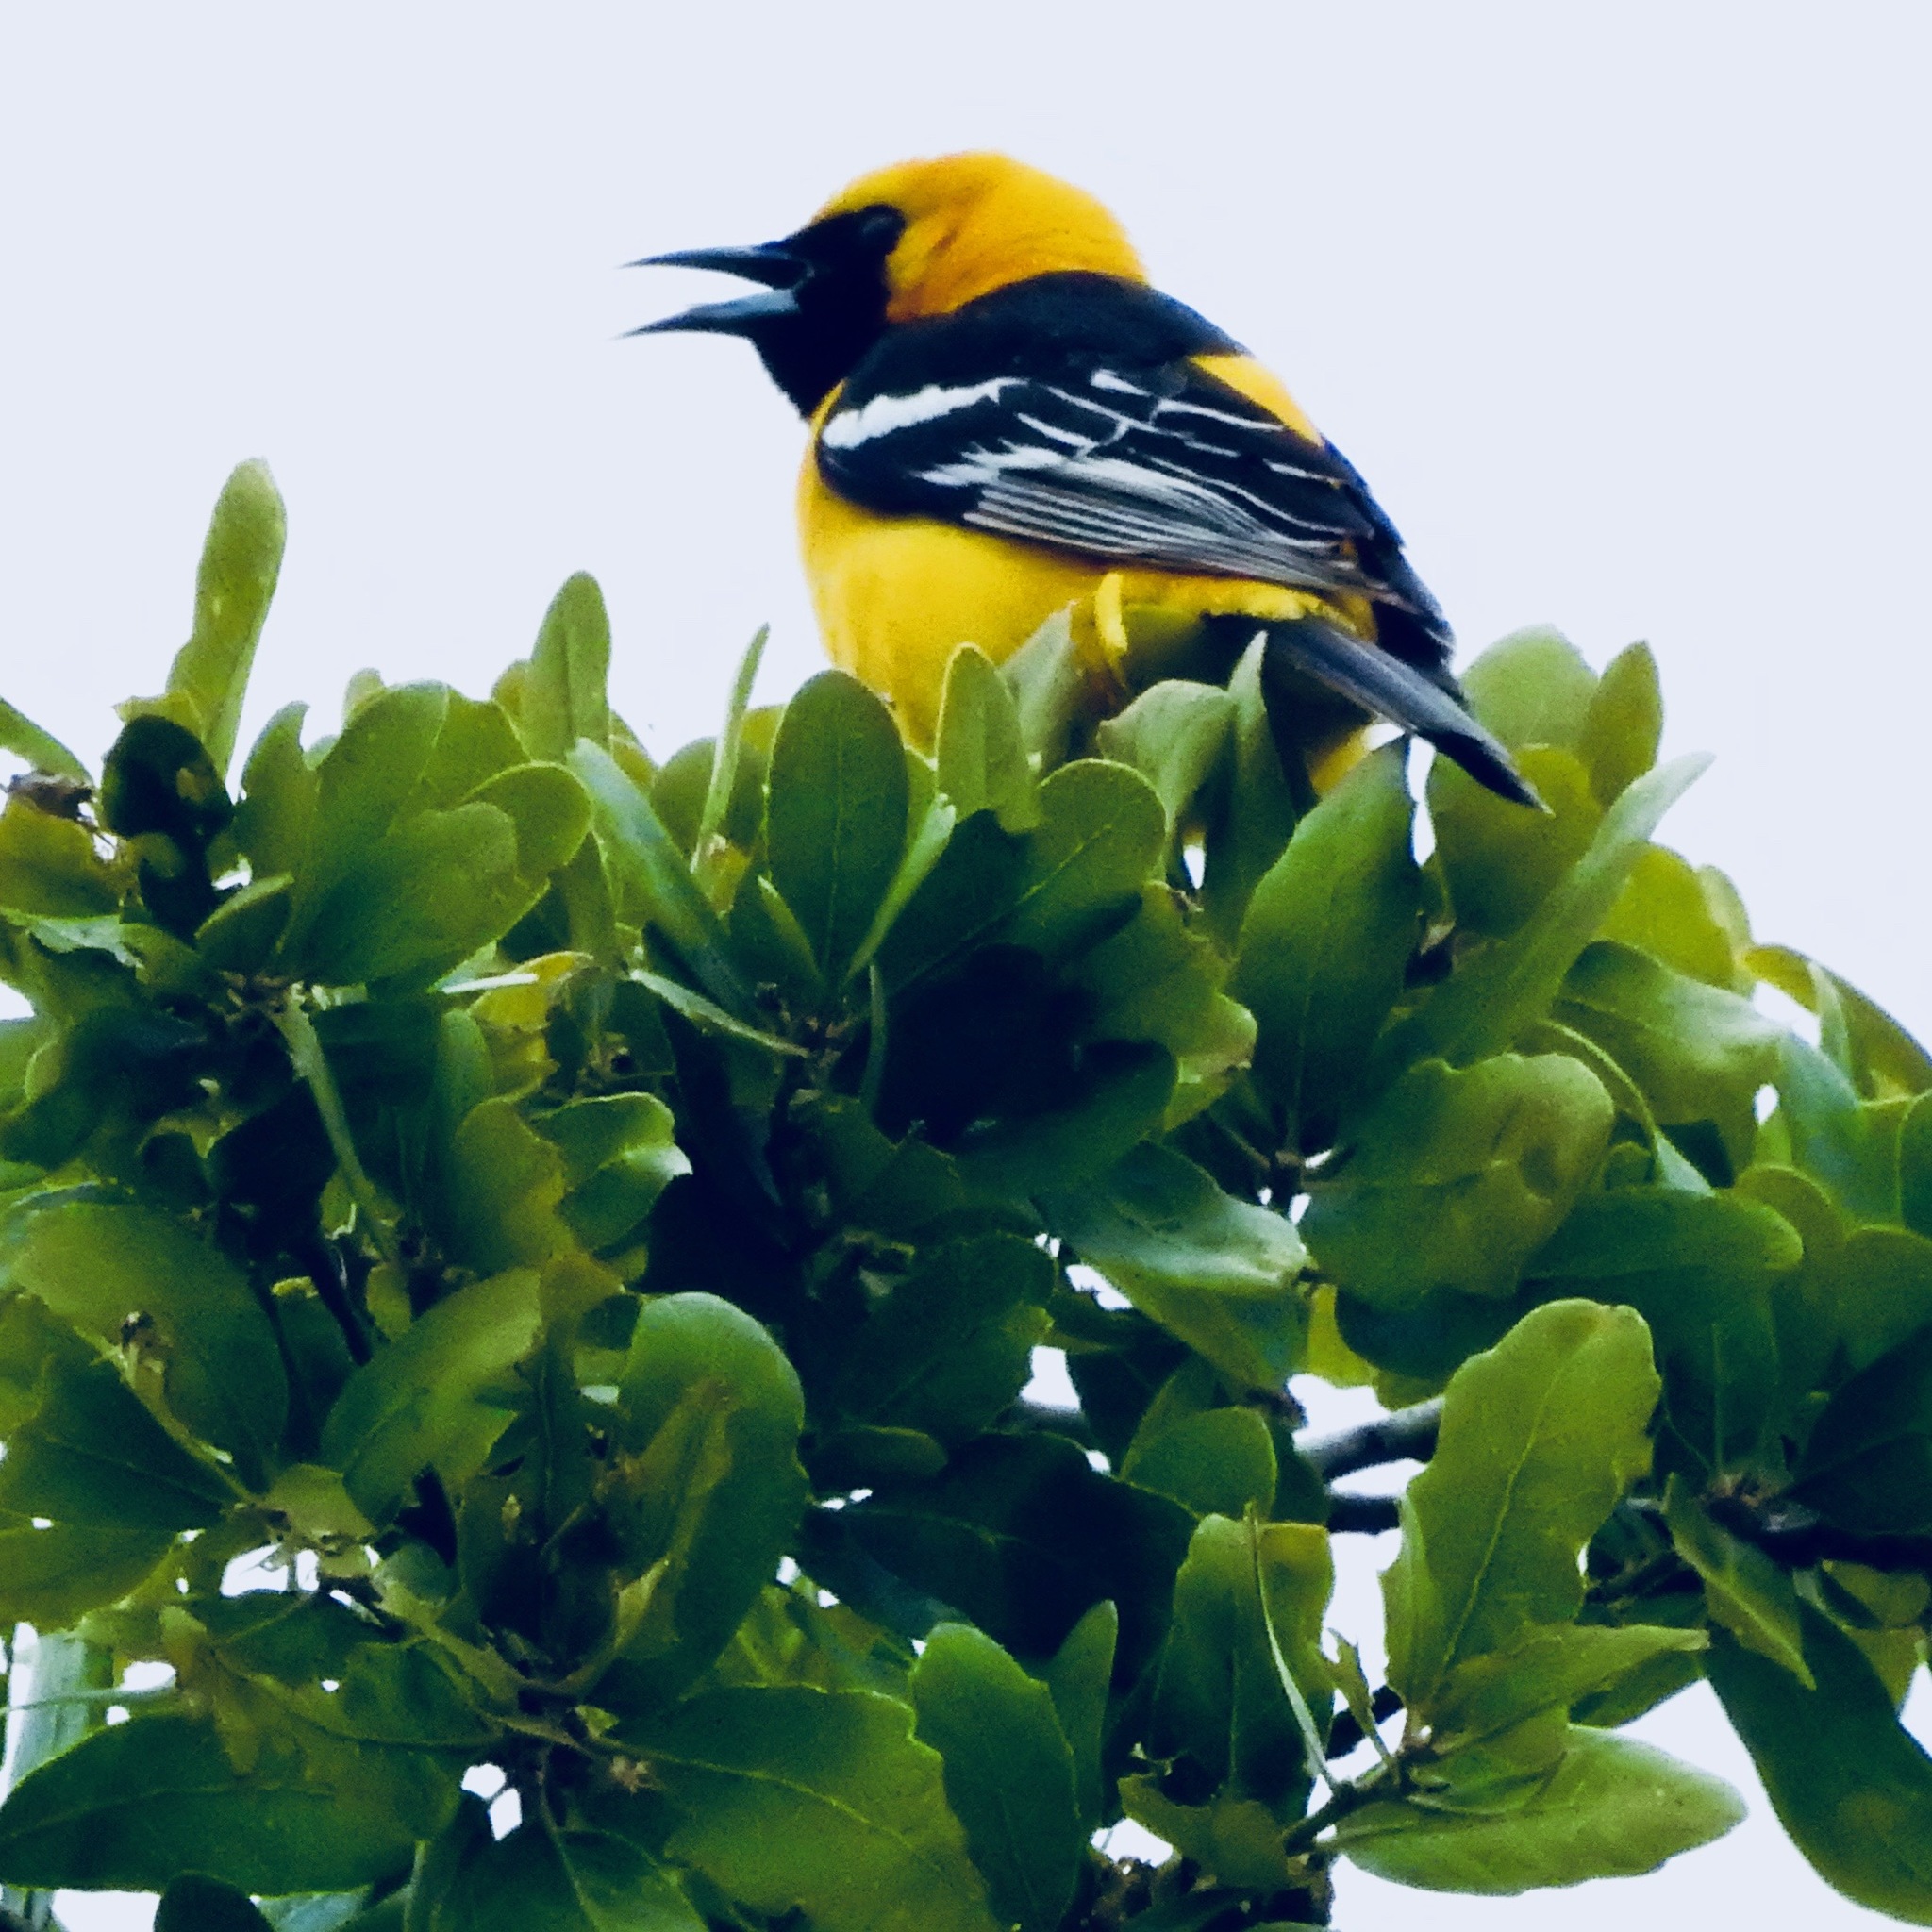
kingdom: Animalia
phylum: Chordata
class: Aves
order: Passeriformes
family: Icteridae
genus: Icterus
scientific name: Icterus cucullatus
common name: Hooded oriole
